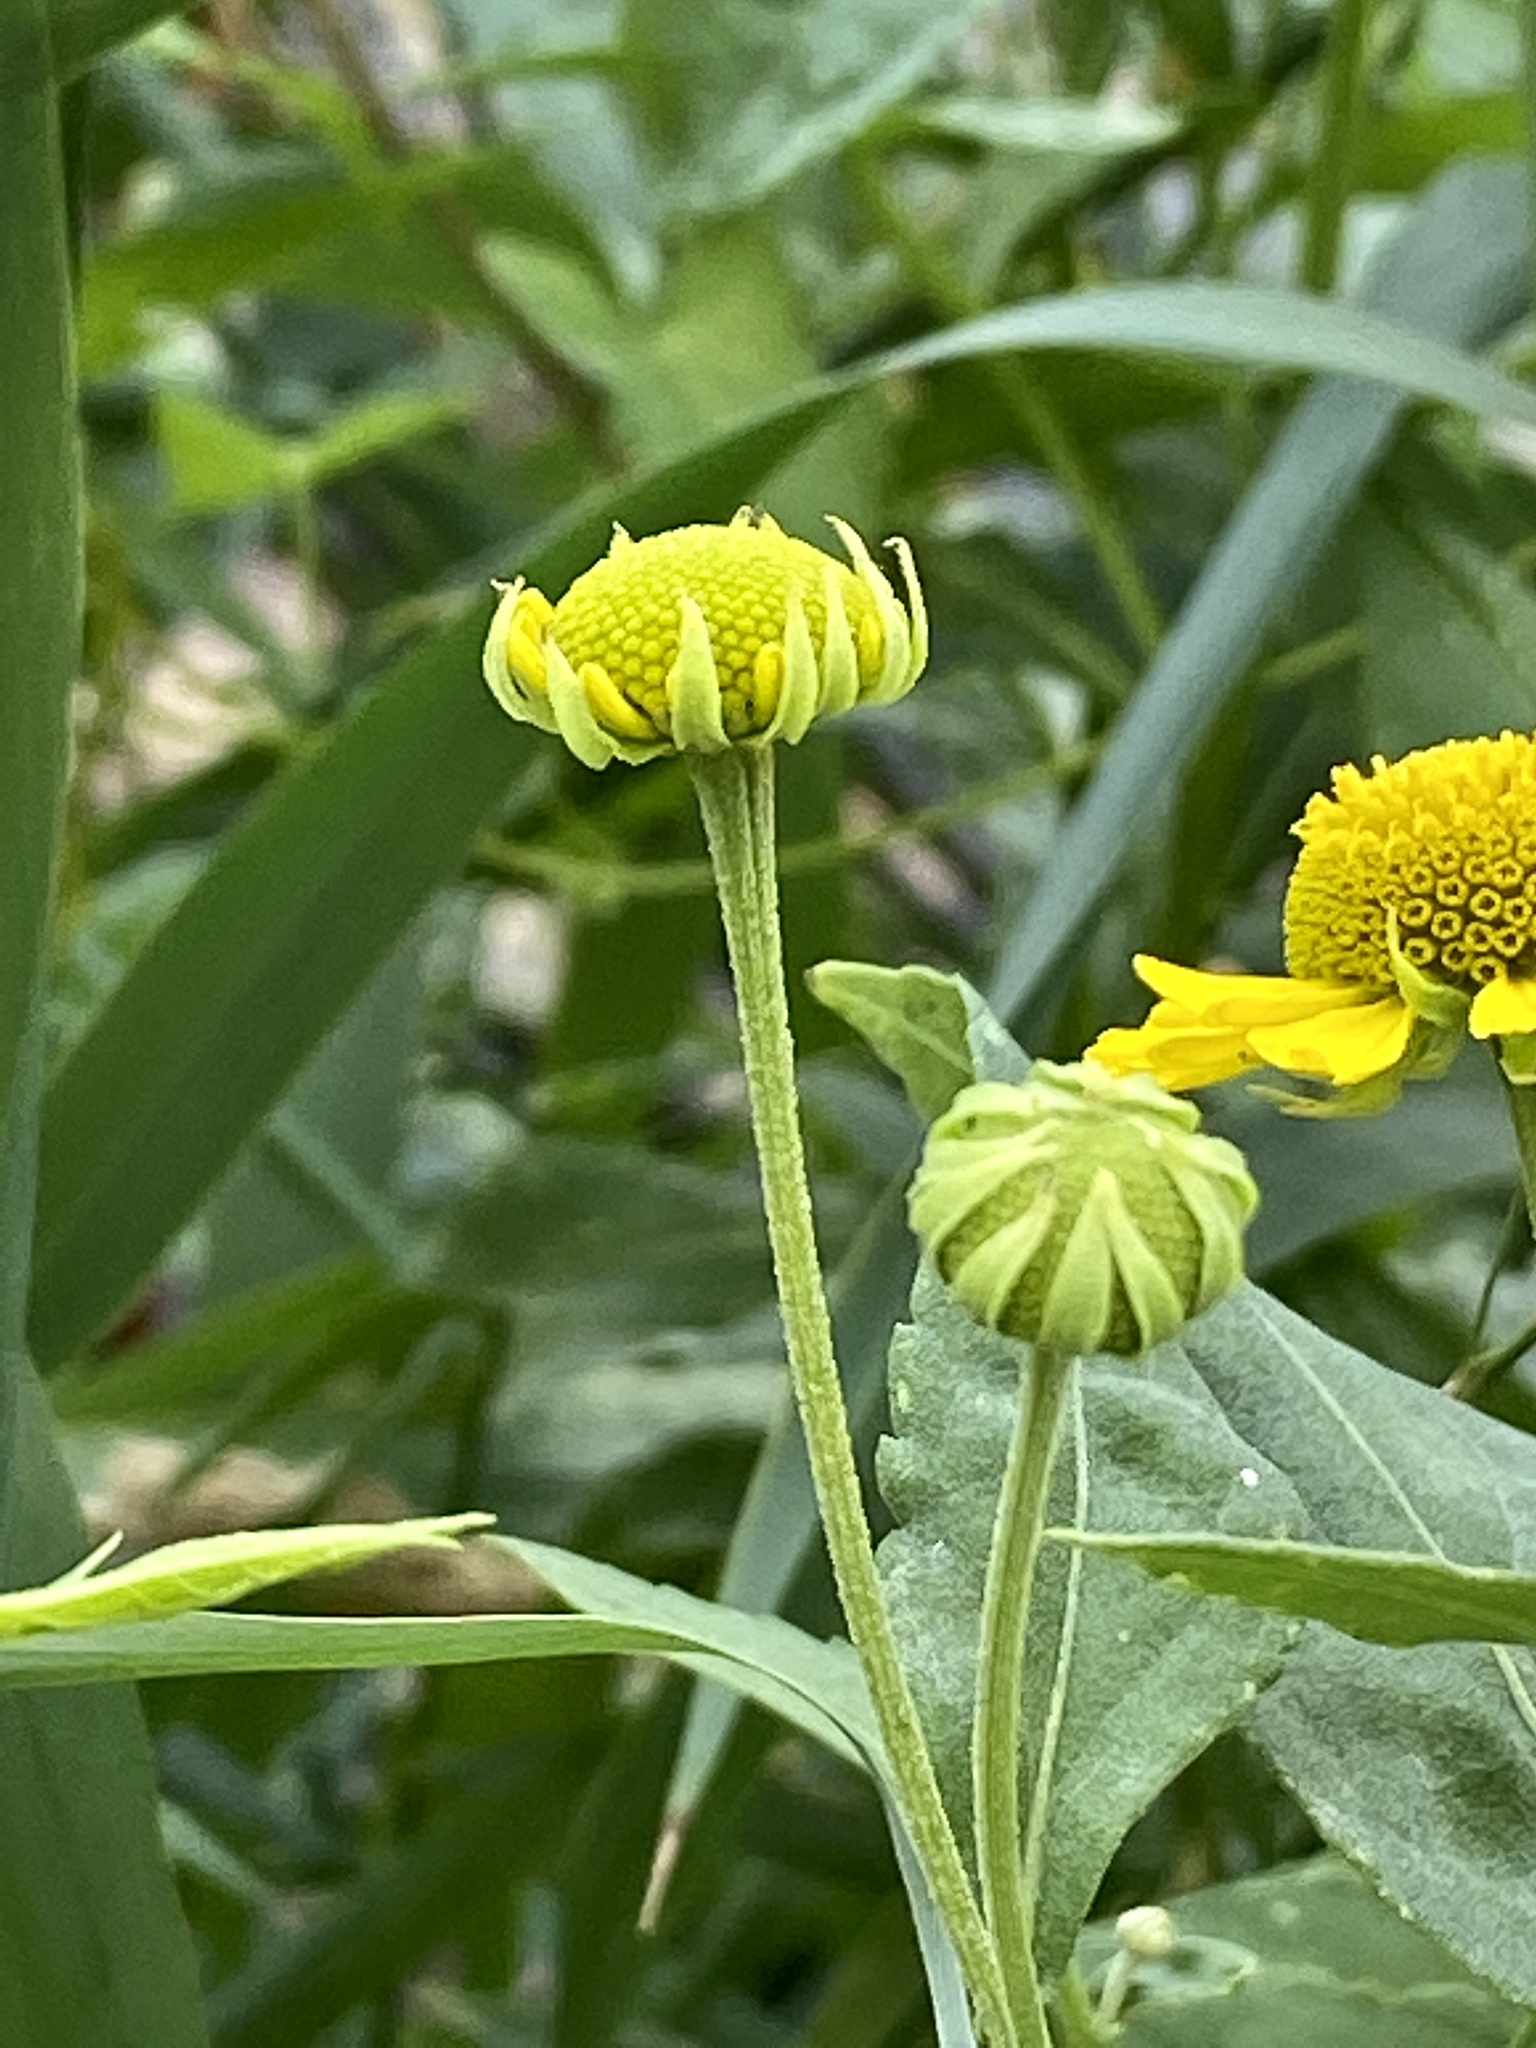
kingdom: Plantae
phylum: Tracheophyta
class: Magnoliopsida
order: Asterales
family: Asteraceae
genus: Helenium
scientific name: Helenium autumnale
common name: Sneezeweed
